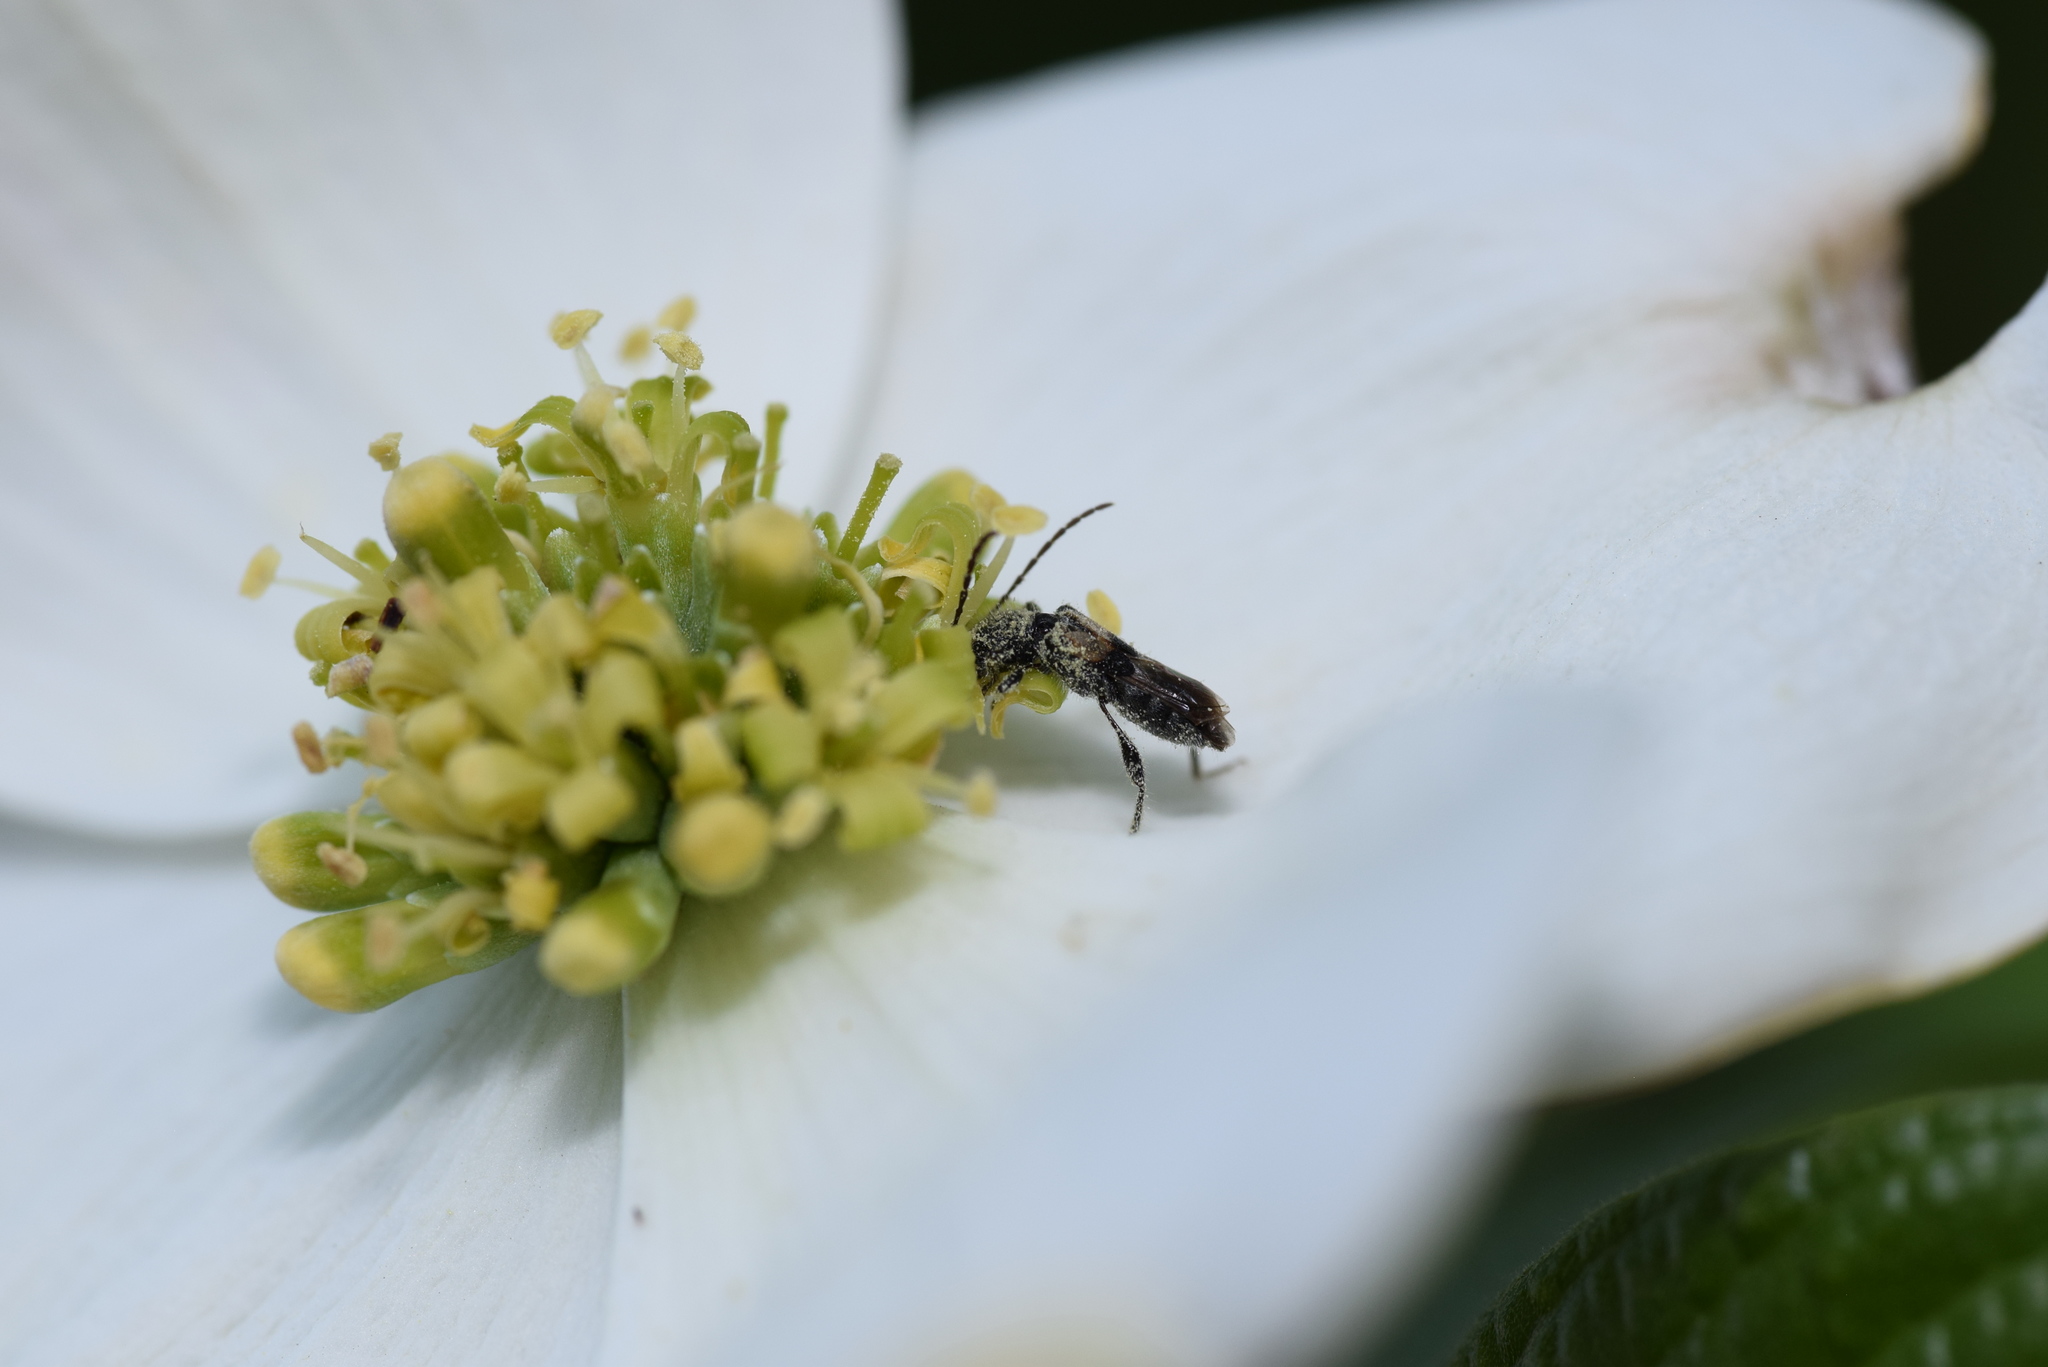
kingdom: Animalia
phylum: Arthropoda
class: Insecta
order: Coleoptera
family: Cerambycidae
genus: Molorchus
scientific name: Molorchus bimaculatus
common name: Bimaculate longhorn beetle
